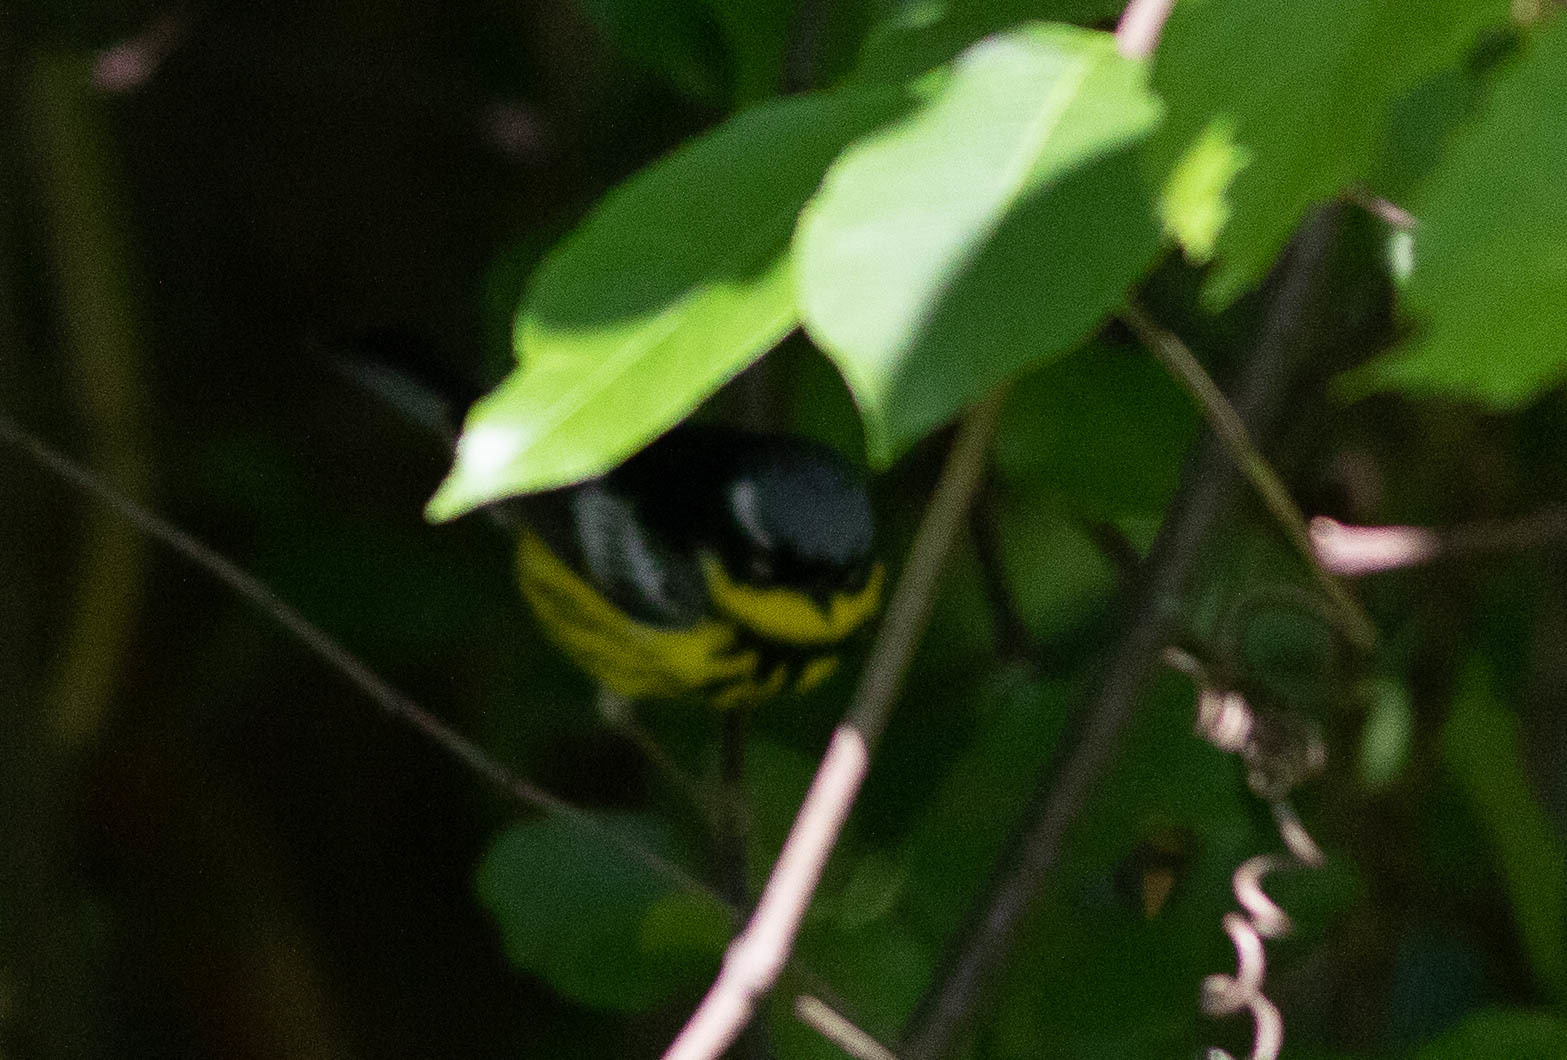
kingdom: Animalia
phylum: Chordata
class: Aves
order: Passeriformes
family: Parulidae
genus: Setophaga
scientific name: Setophaga magnolia
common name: Magnolia warbler
